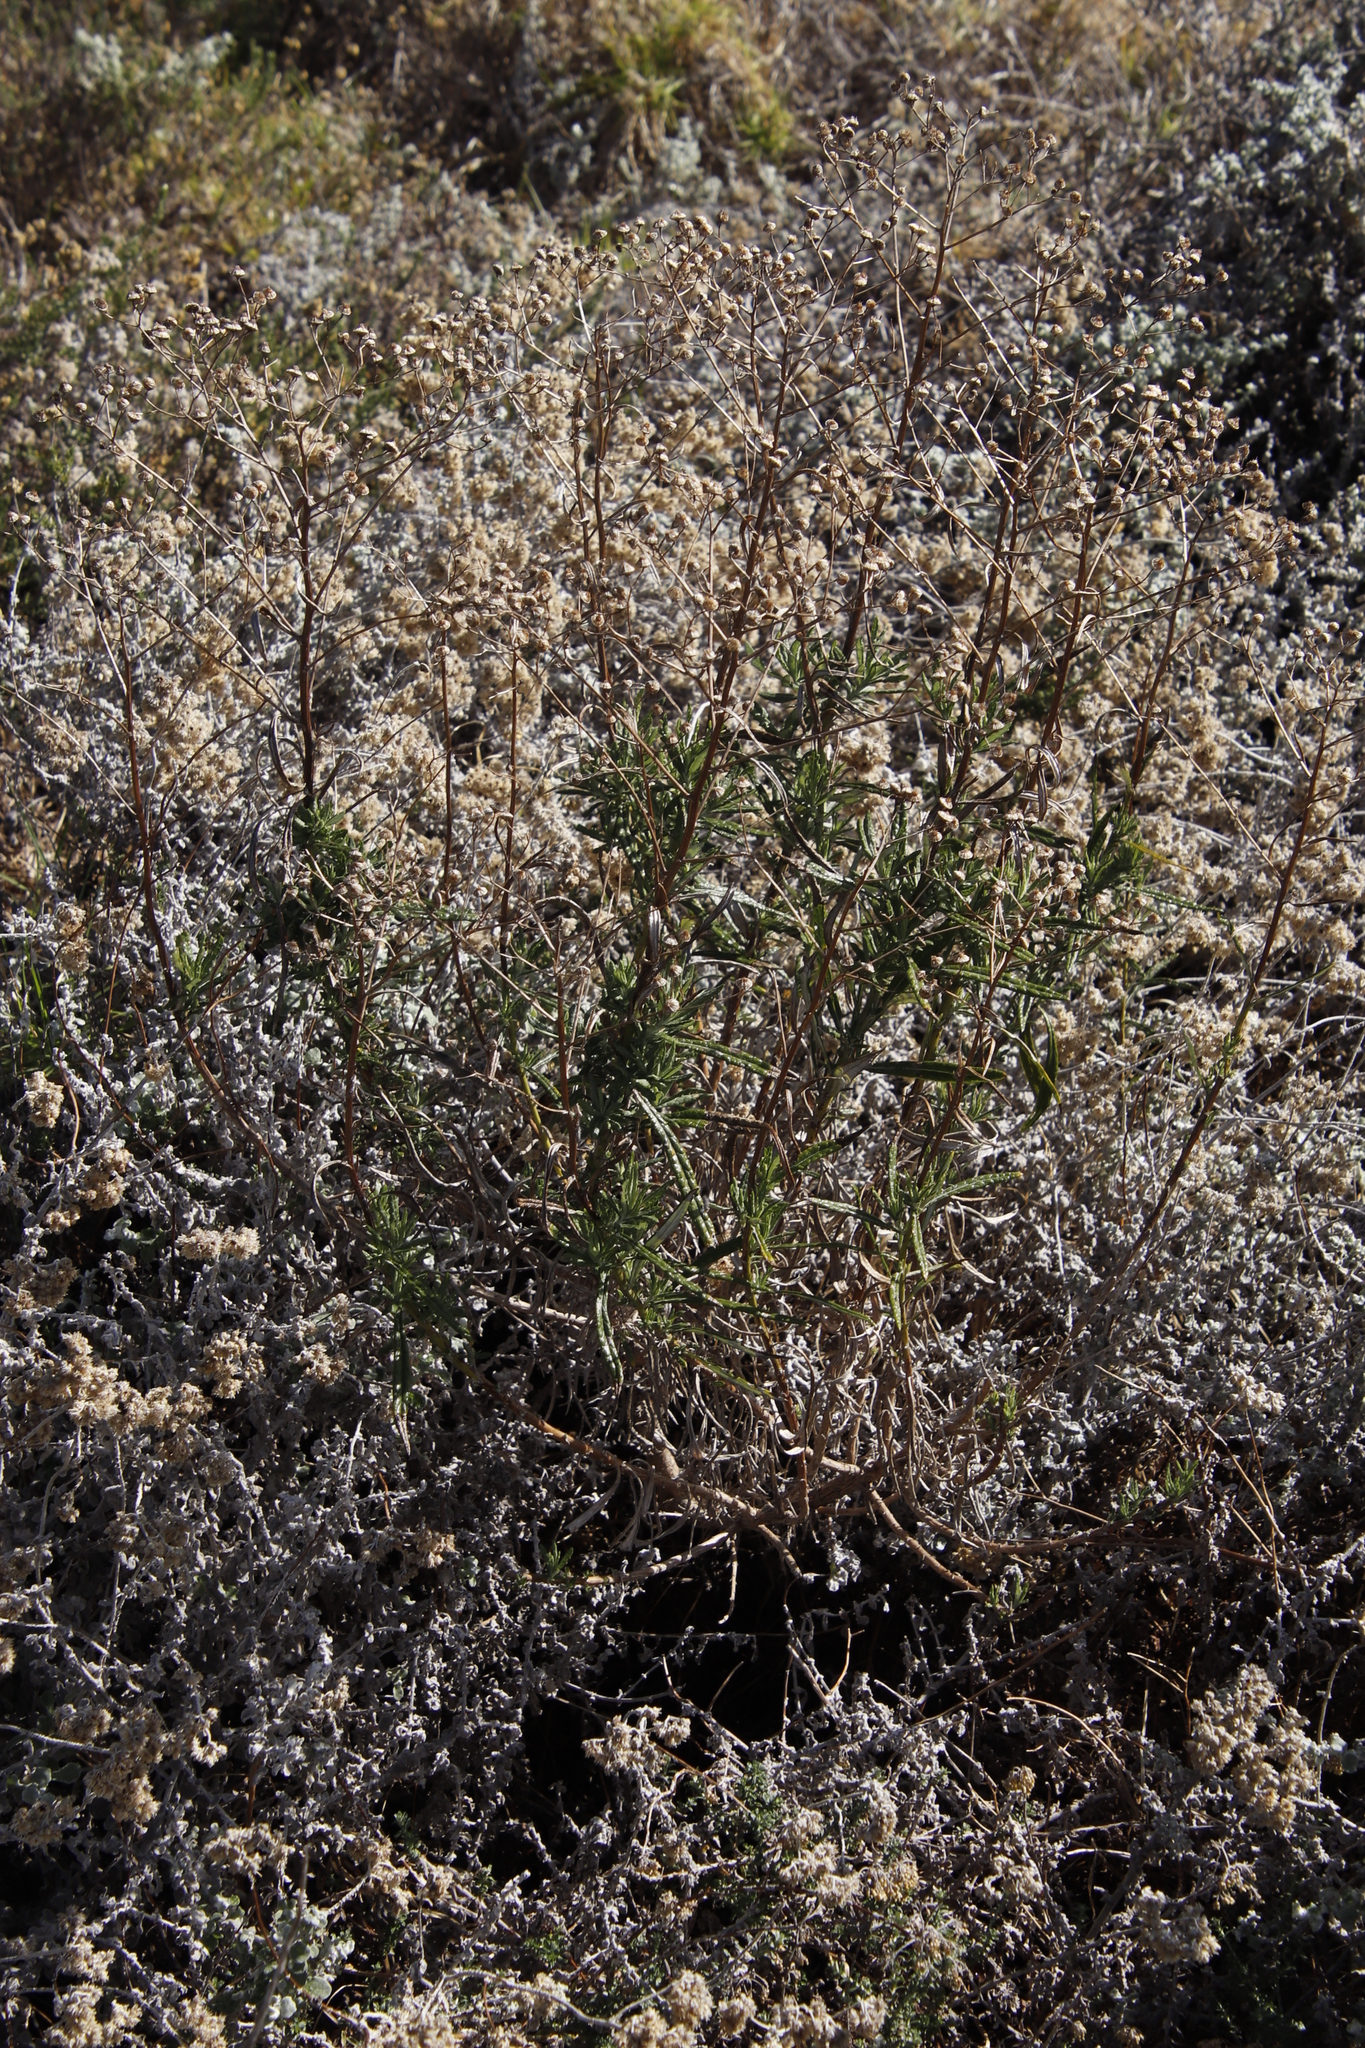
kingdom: Plantae
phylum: Tracheophyta
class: Magnoliopsida
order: Asterales
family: Asteraceae
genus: Senecio
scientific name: Senecio pterophorus
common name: Shoddy ragwort
